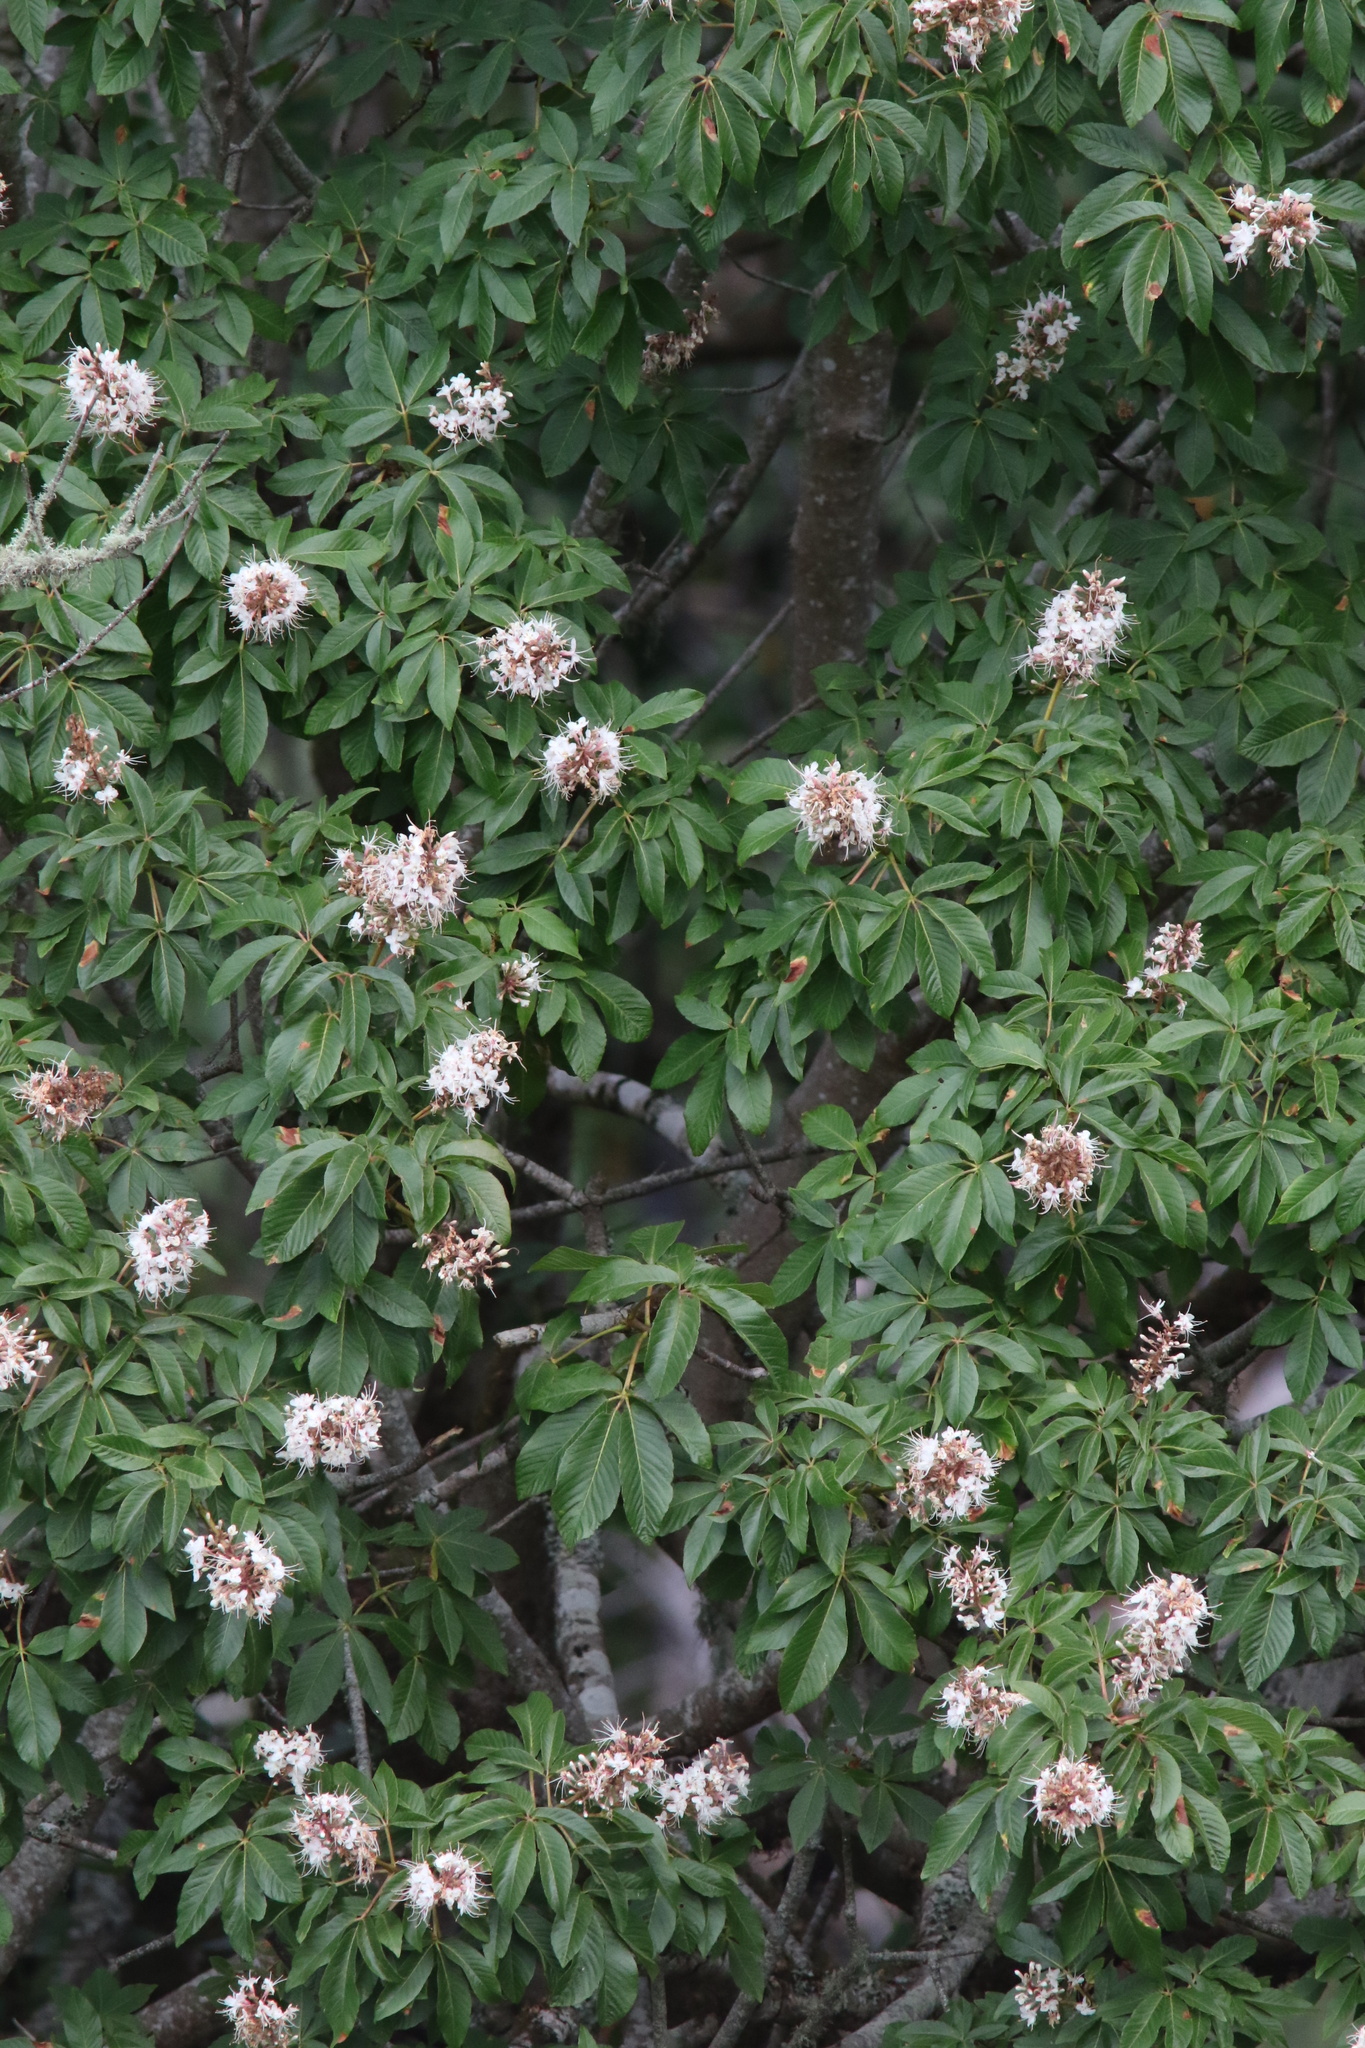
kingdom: Plantae
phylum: Tracheophyta
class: Magnoliopsida
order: Sapindales
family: Sapindaceae
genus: Aesculus
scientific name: Aesculus californica
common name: California buckeye
